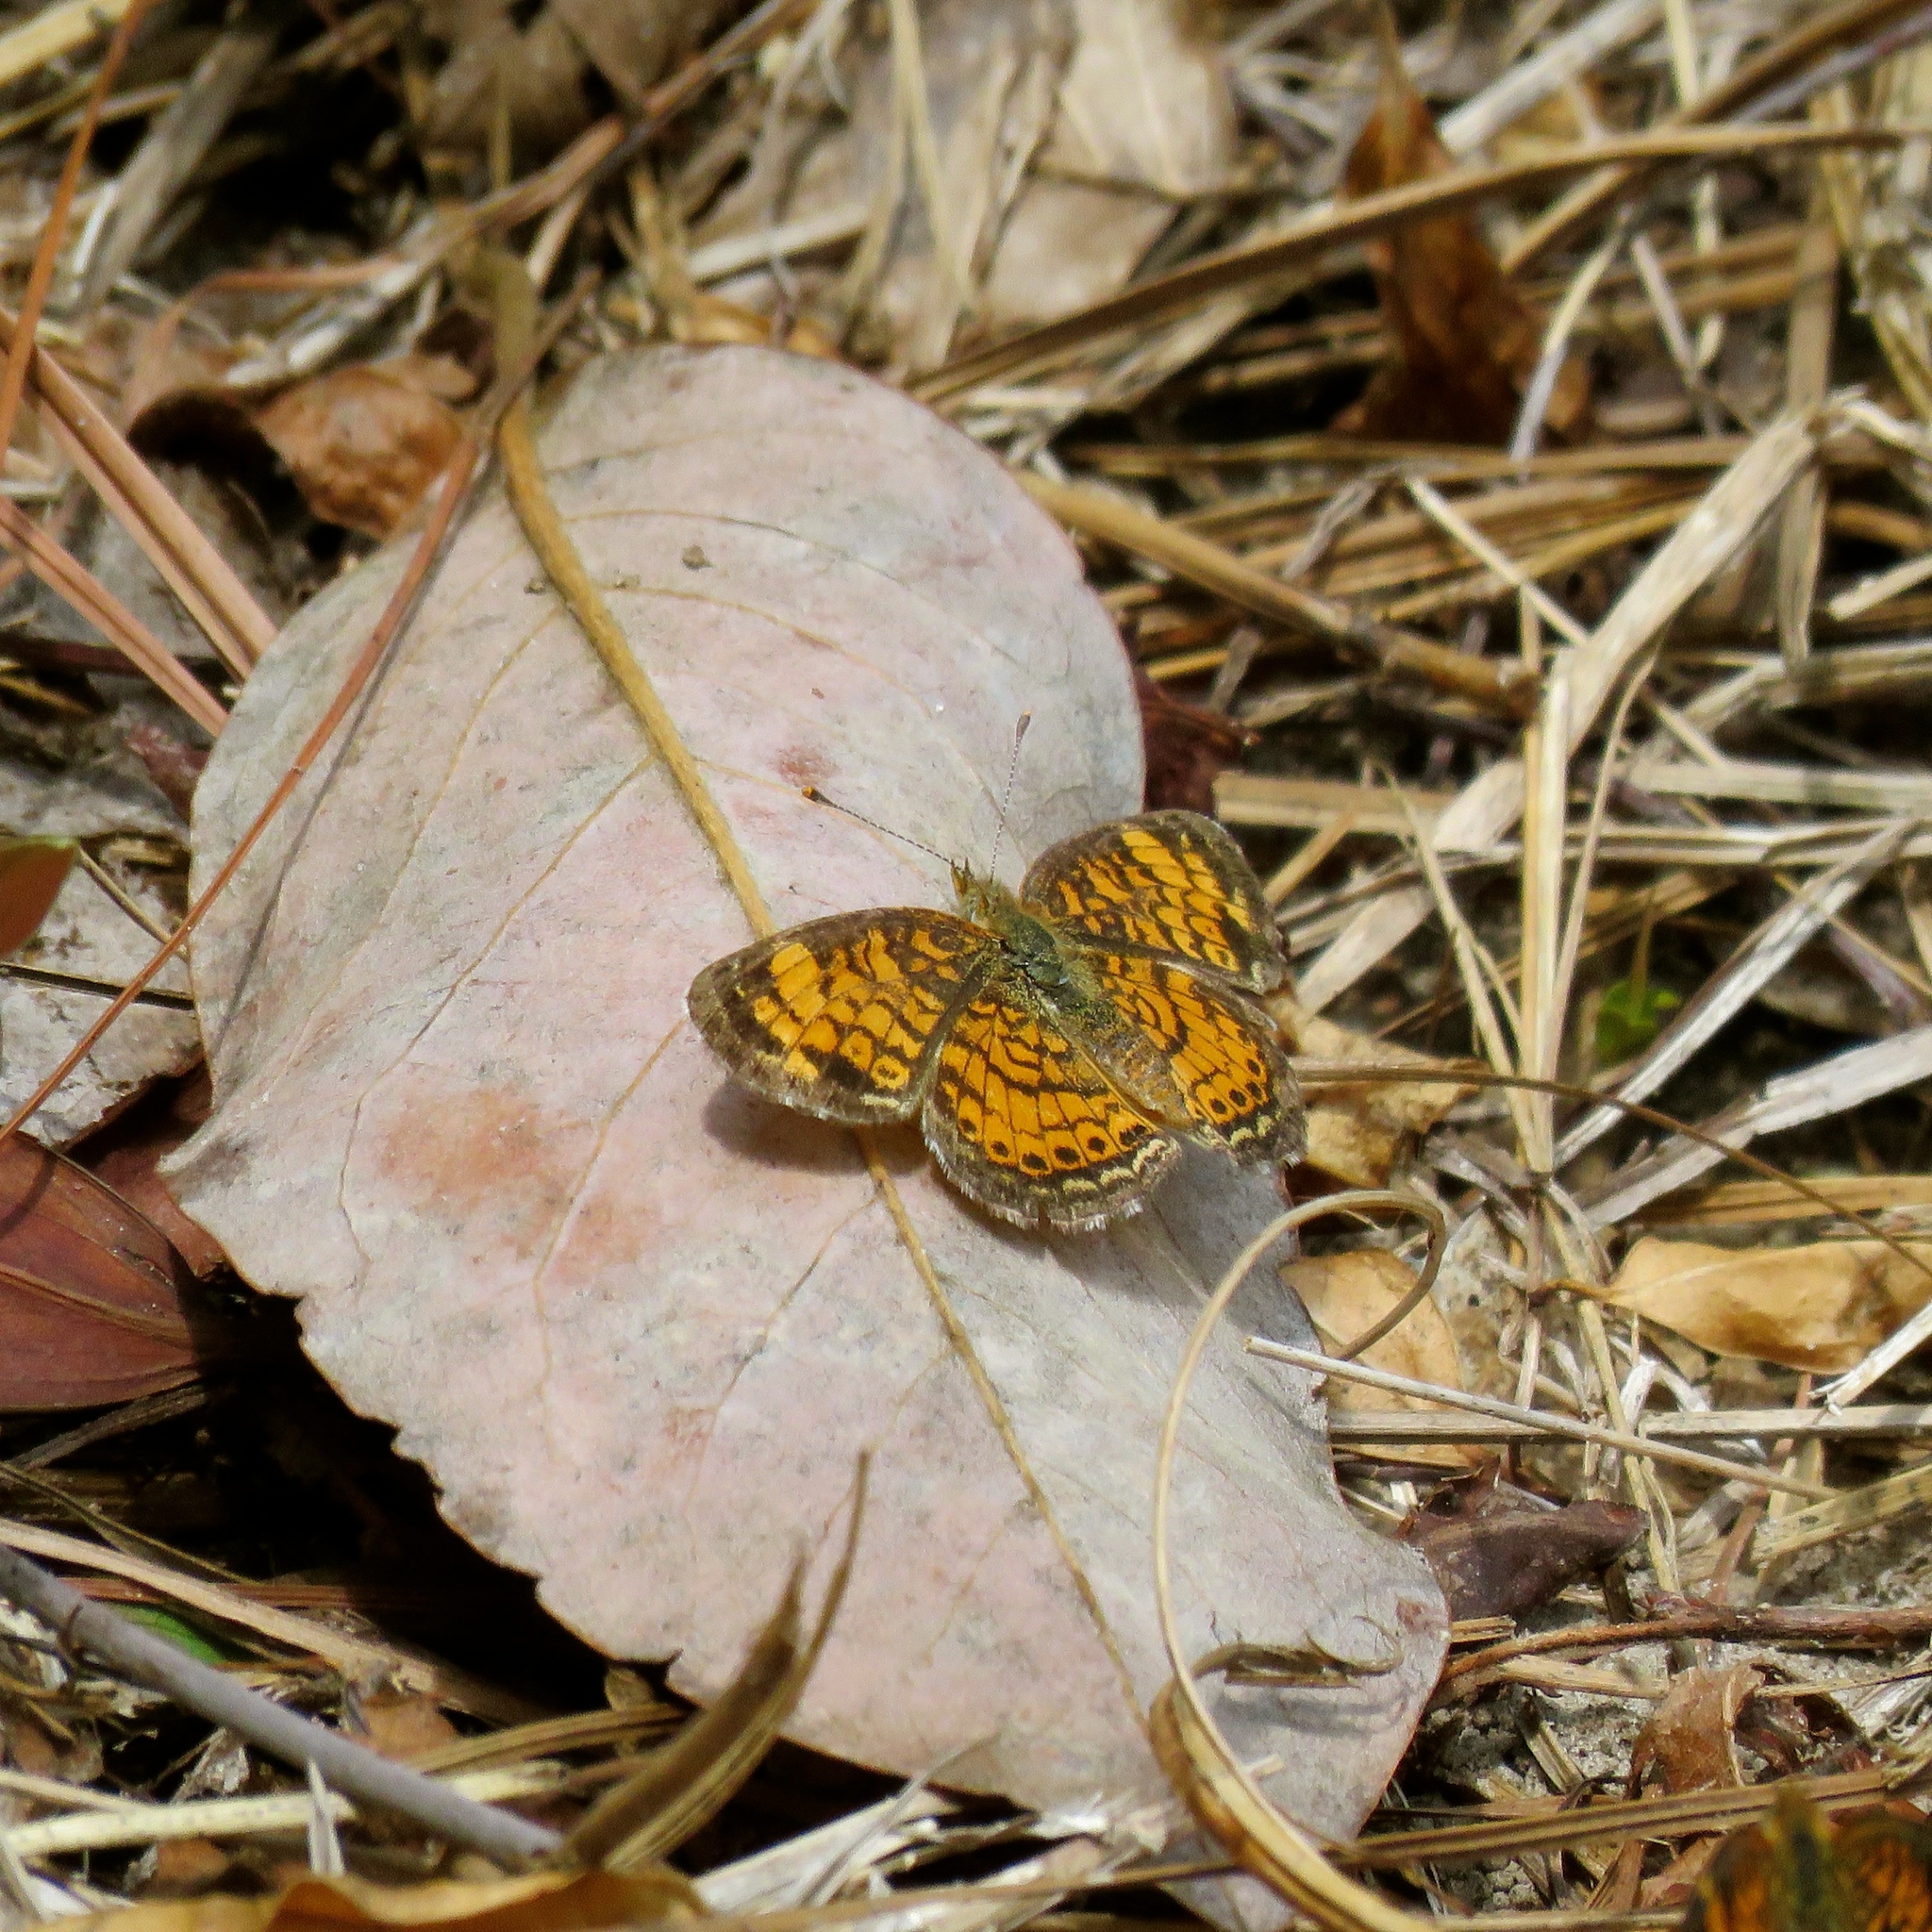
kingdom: Animalia
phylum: Arthropoda
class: Insecta
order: Lepidoptera
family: Nymphalidae
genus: Phyciodes
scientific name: Phyciodes tharos
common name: Pearl crescent
